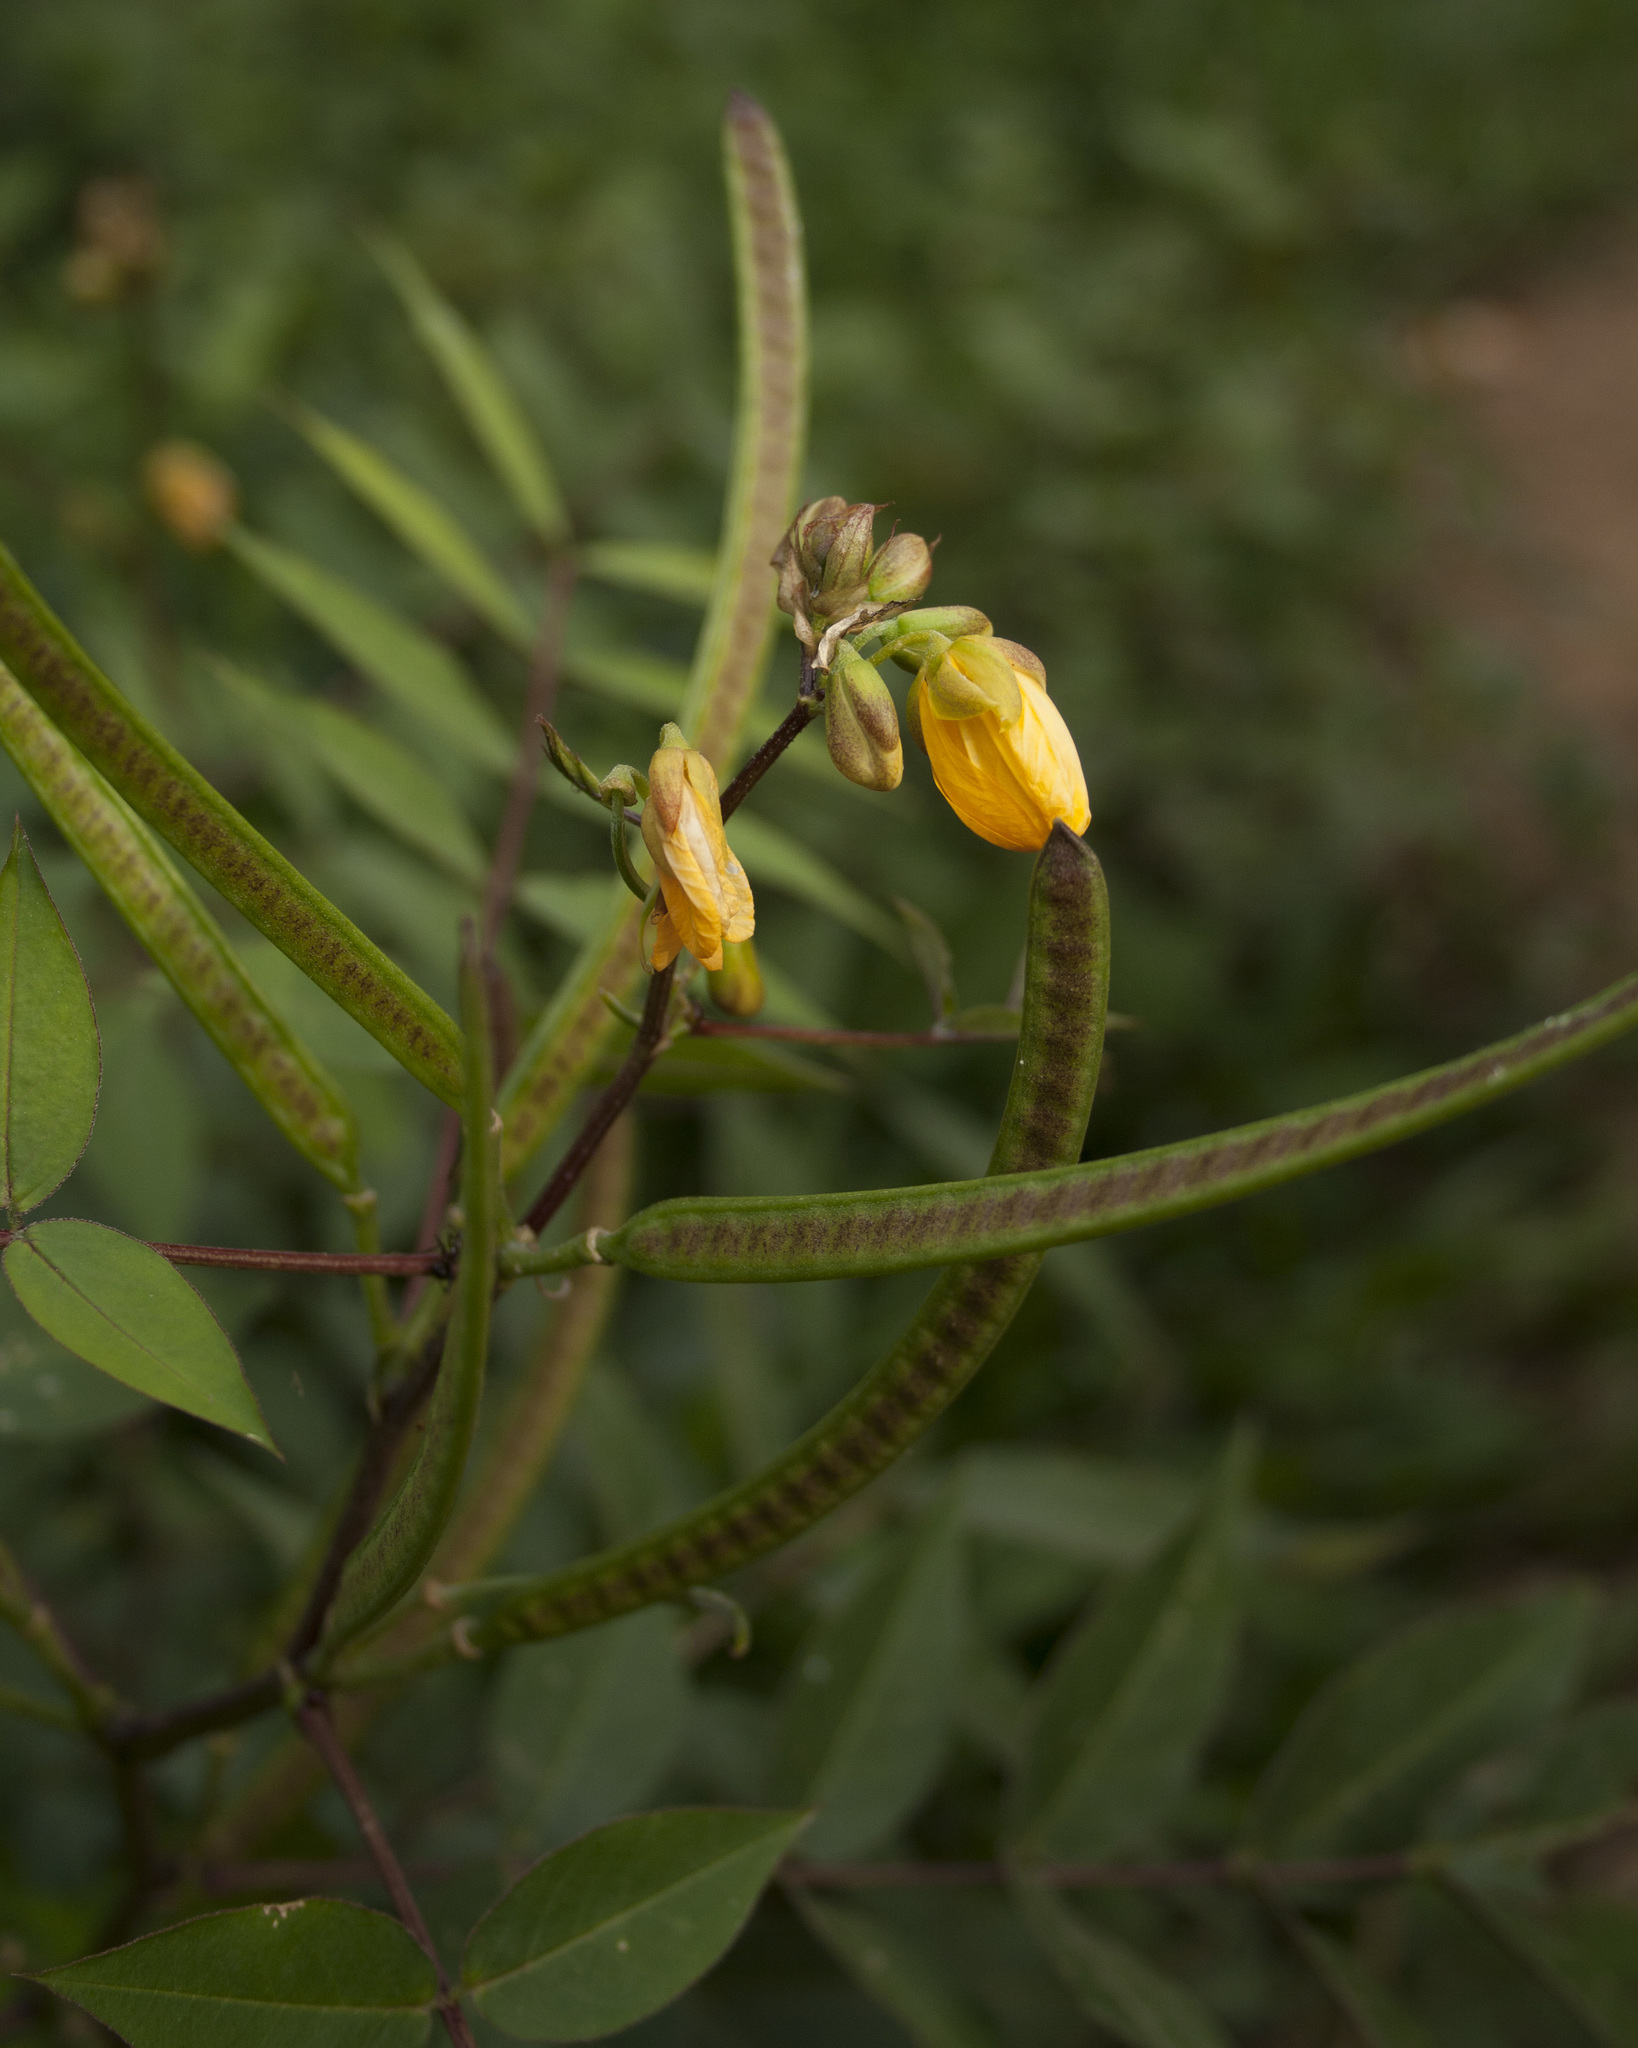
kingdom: Plantae
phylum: Tracheophyta
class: Magnoliopsida
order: Fabales
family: Fabaceae
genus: Senna
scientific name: Senna occidentalis
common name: Septicweed
